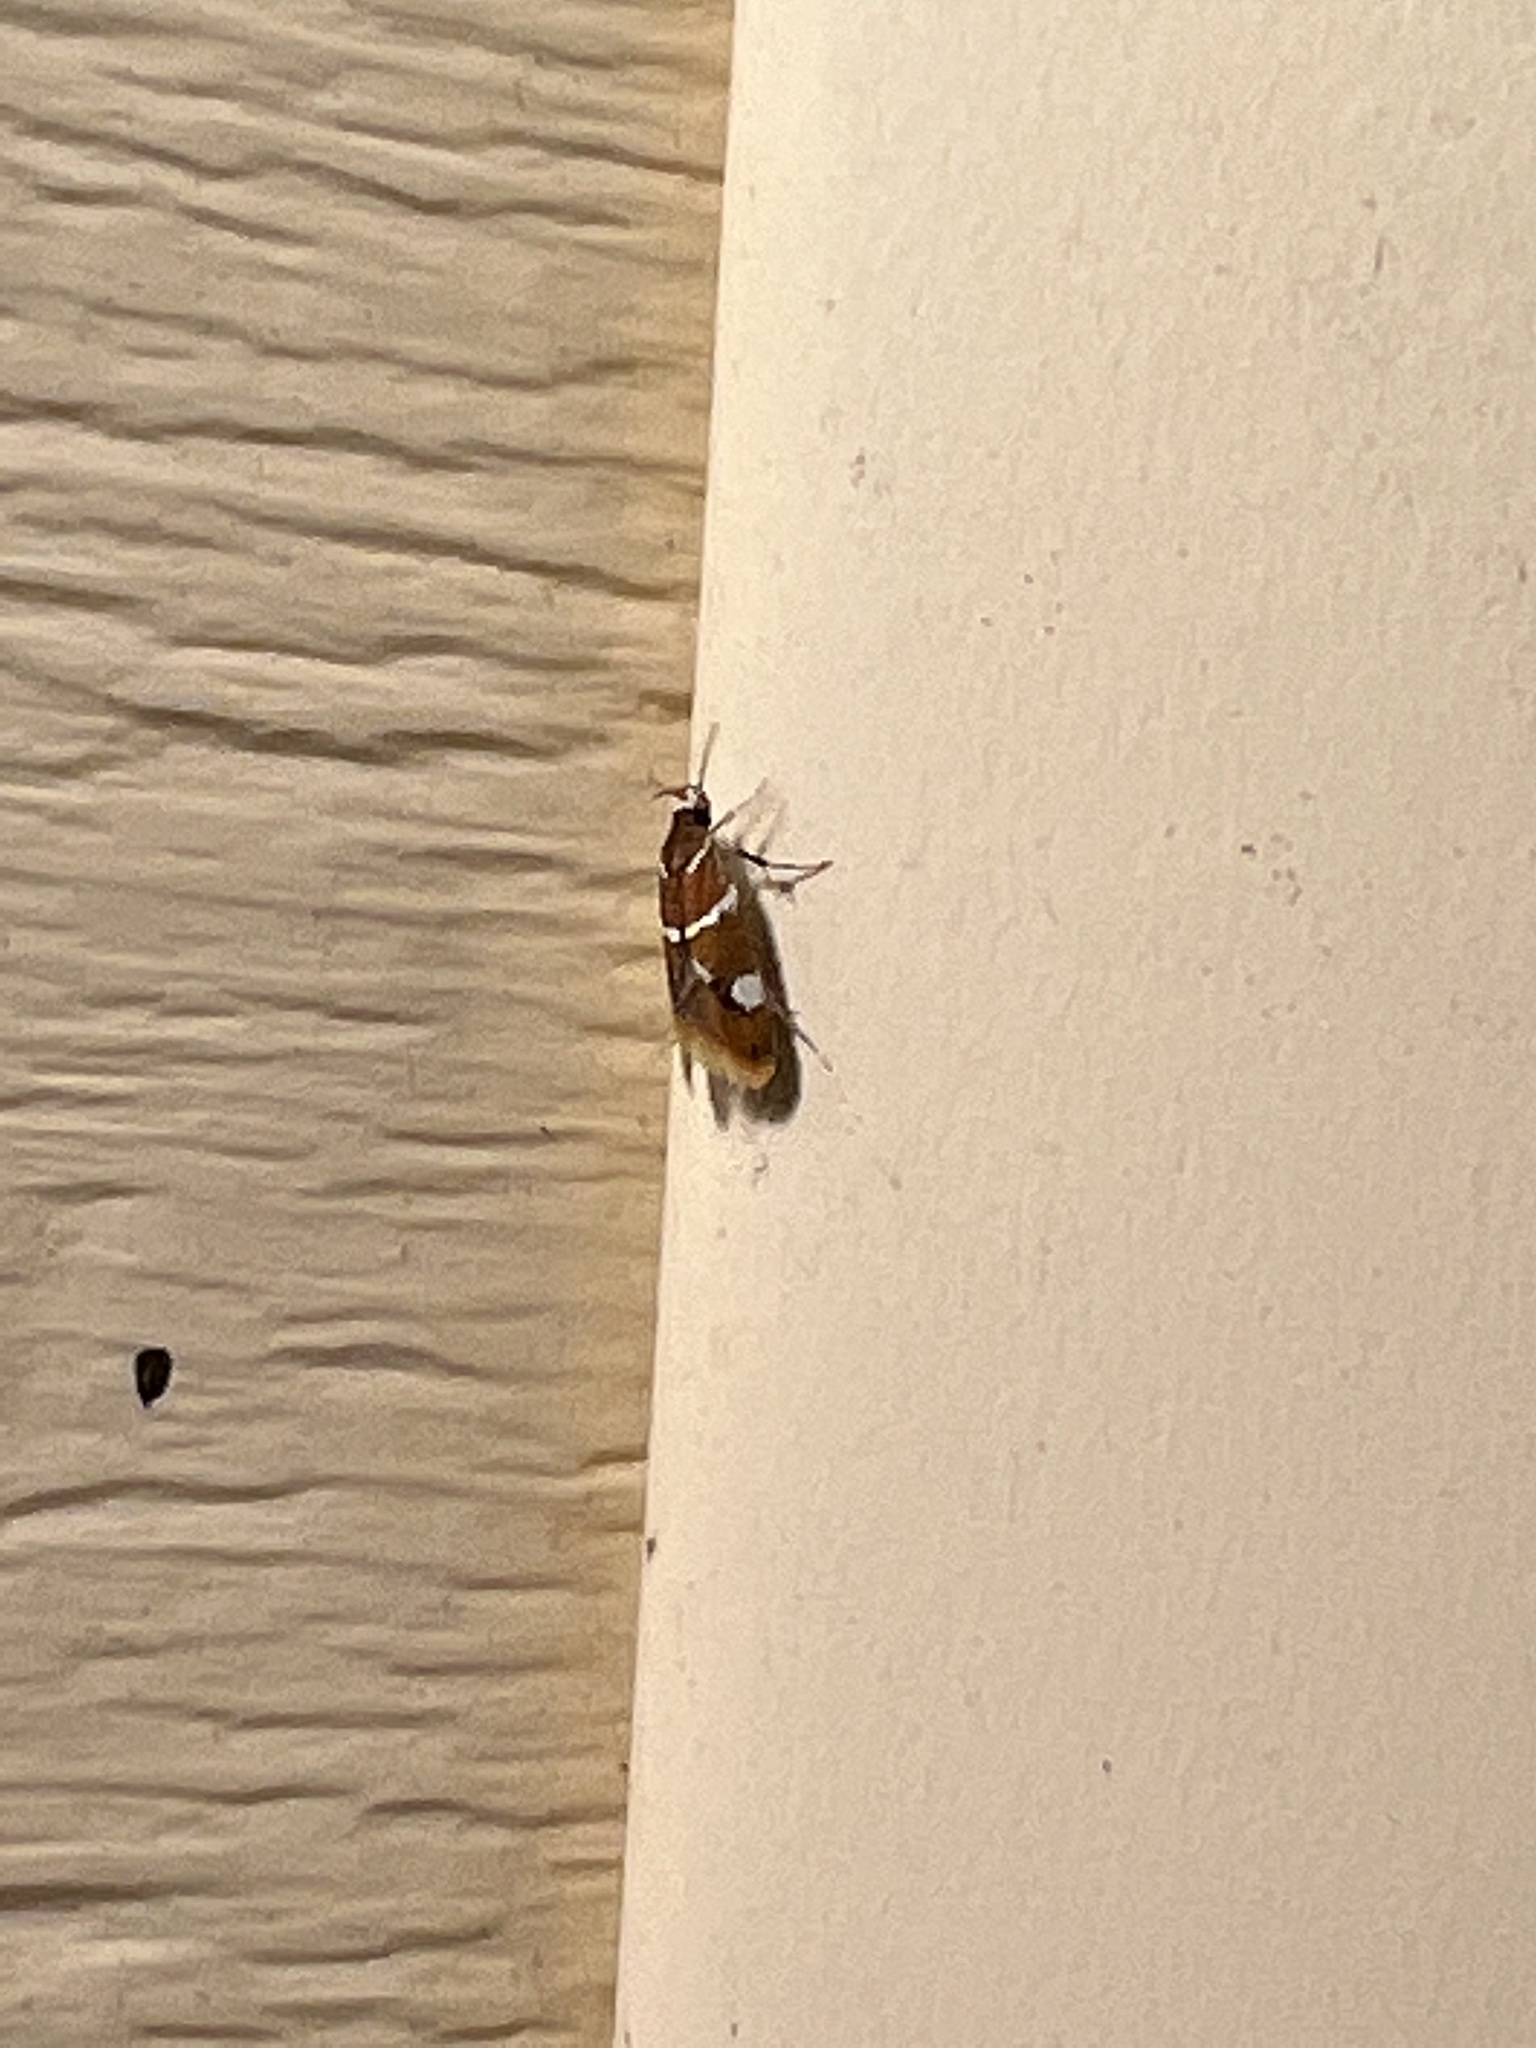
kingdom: Animalia
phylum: Arthropoda
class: Insecta
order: Lepidoptera
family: Oecophoridae
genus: Promalactis
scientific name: Promalactis suzukiella
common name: Moth
